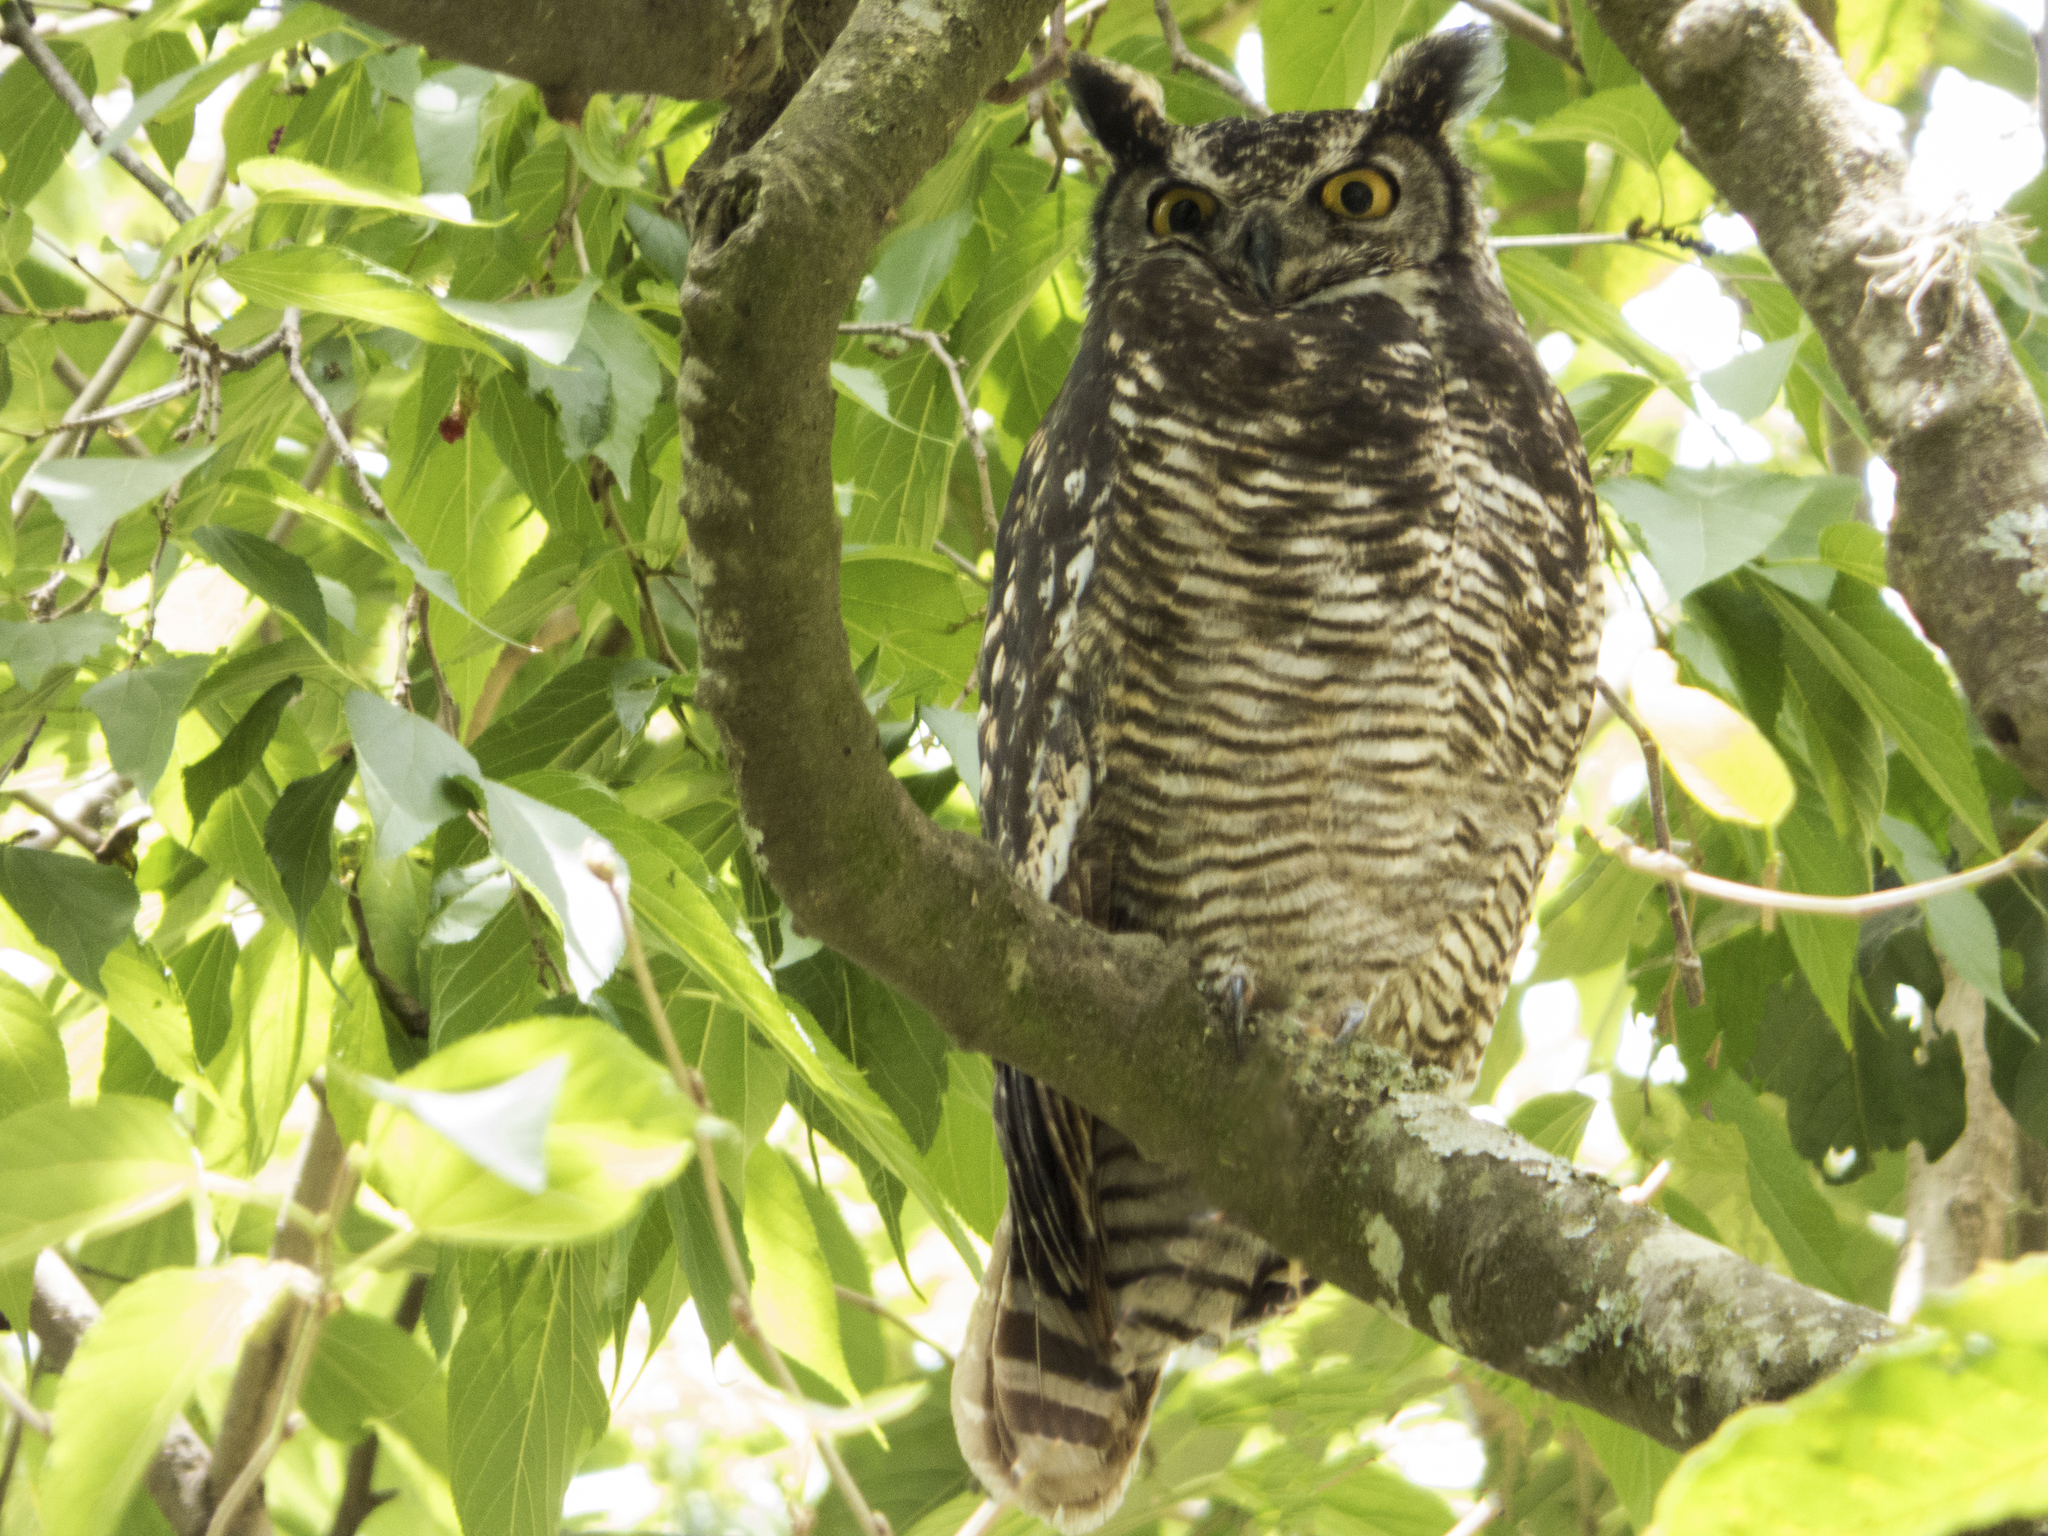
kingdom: Animalia
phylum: Chordata
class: Aves
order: Strigiformes
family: Strigidae
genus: Bubo
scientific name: Bubo virginianus
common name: Great horned owl
